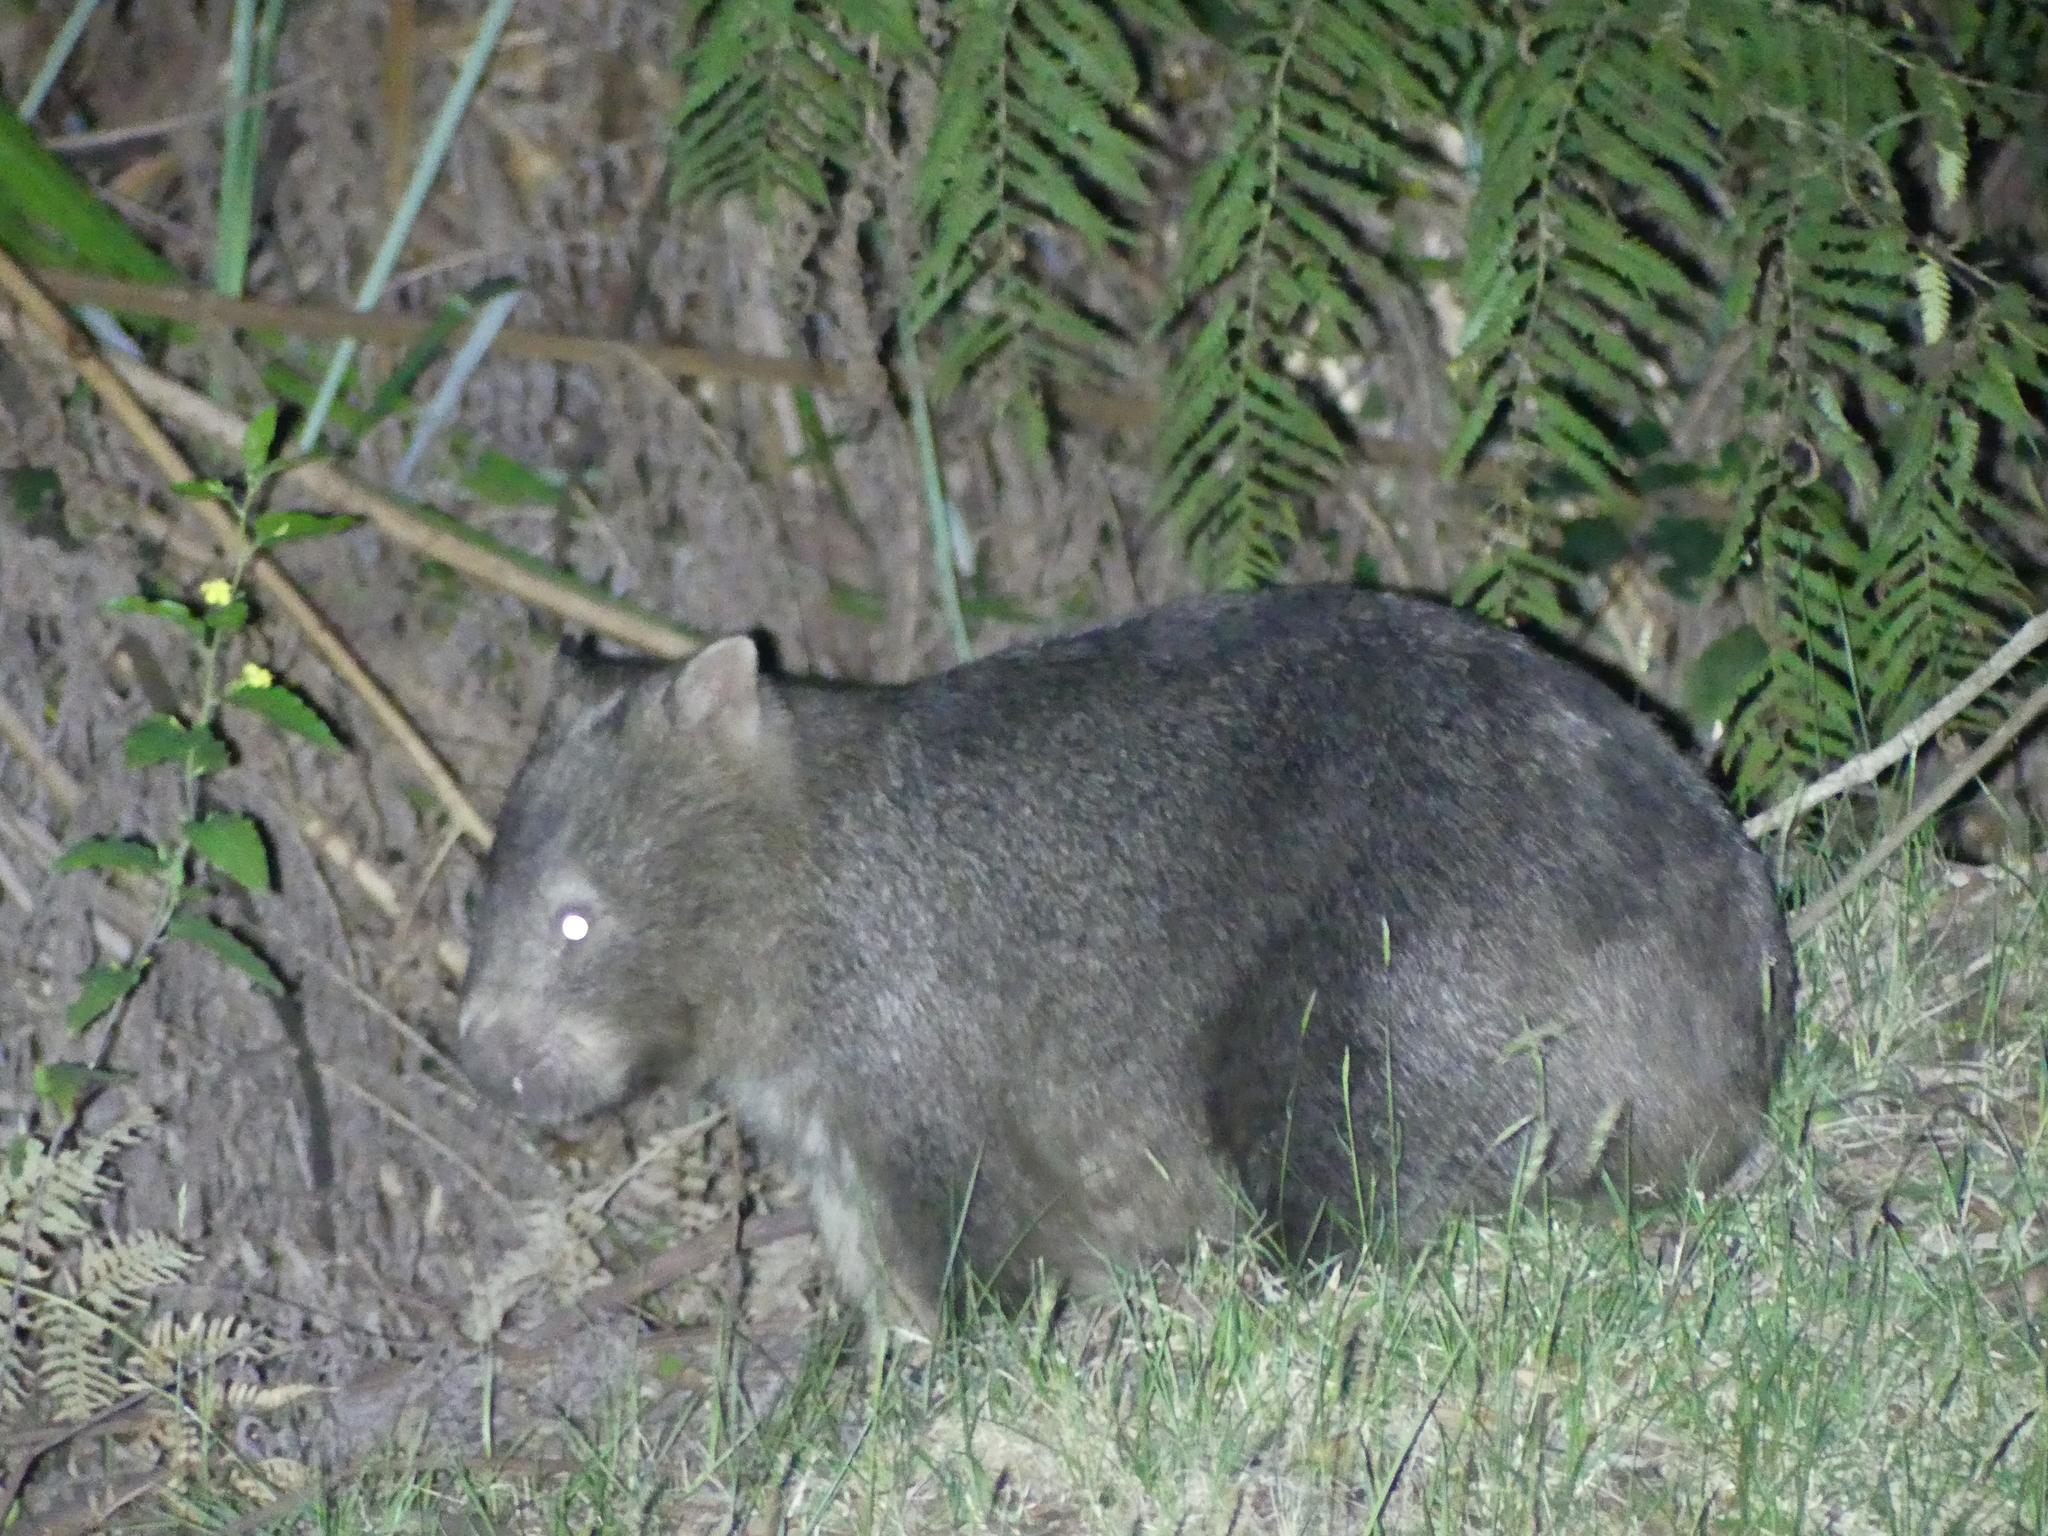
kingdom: Animalia
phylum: Chordata
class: Mammalia
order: Diprotodontia
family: Vombatidae
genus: Vombatus
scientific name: Vombatus ursinus
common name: Common wombat
